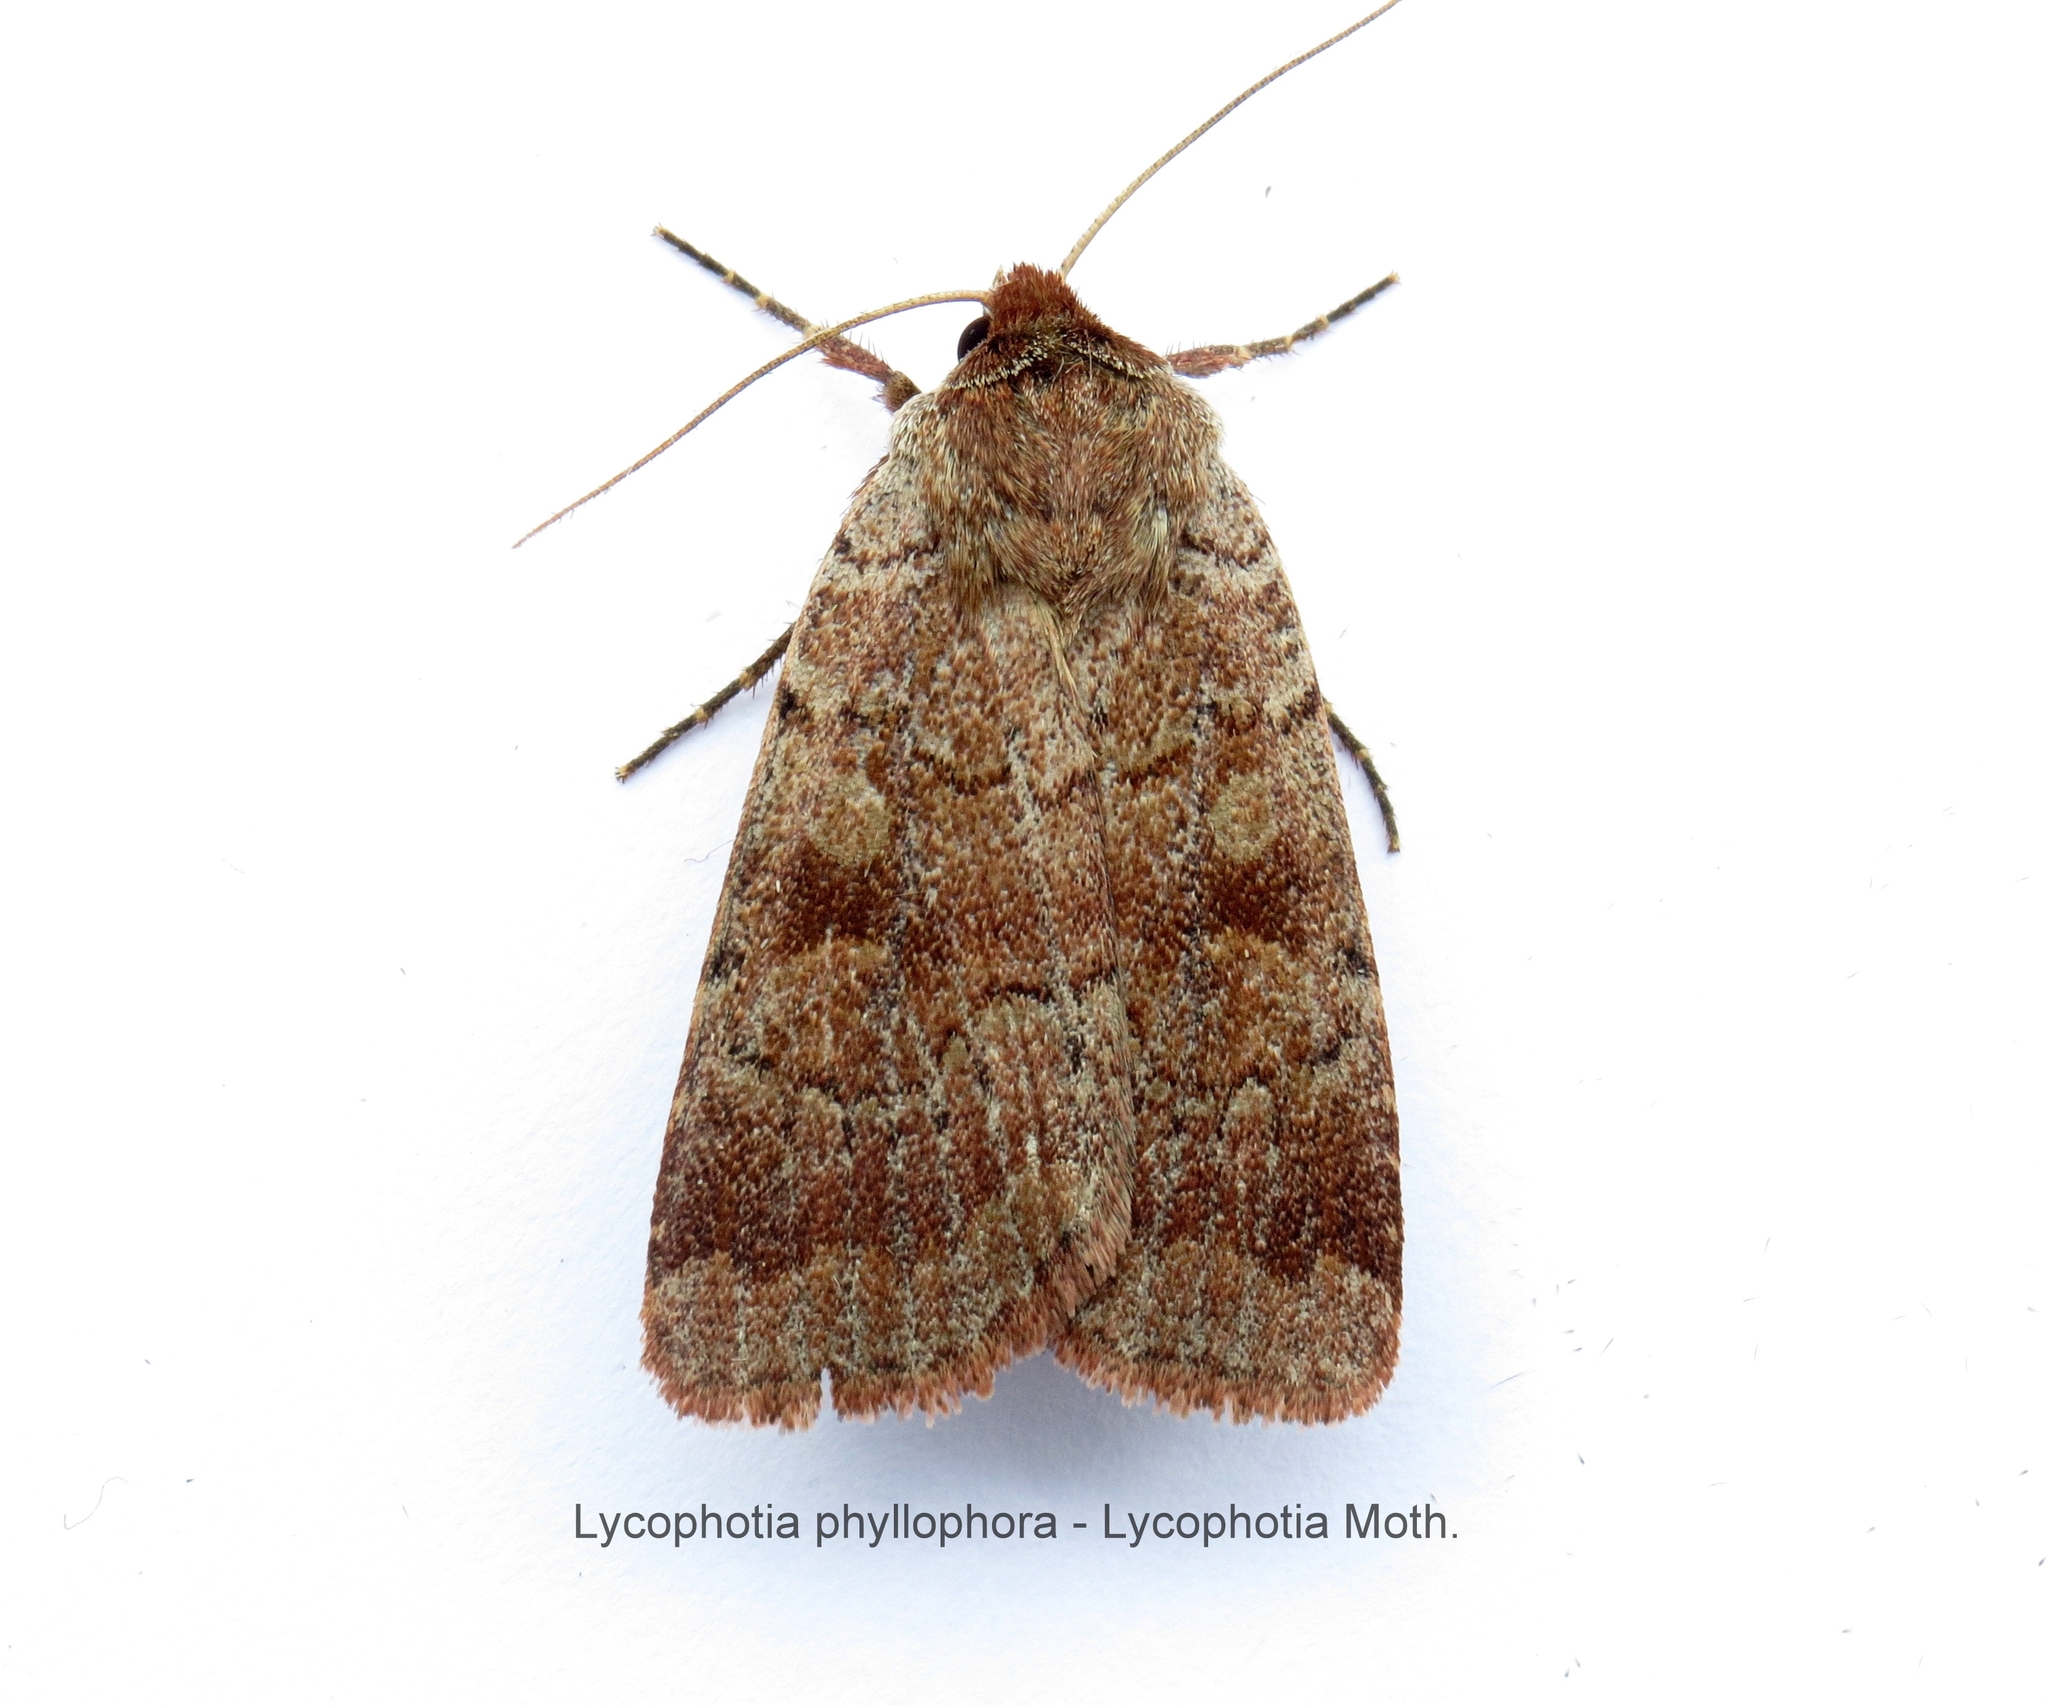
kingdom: Animalia
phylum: Arthropoda
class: Insecta
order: Lepidoptera
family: Noctuidae
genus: Lycophotia
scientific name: Lycophotia phyllophora
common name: Lycophotia moth
